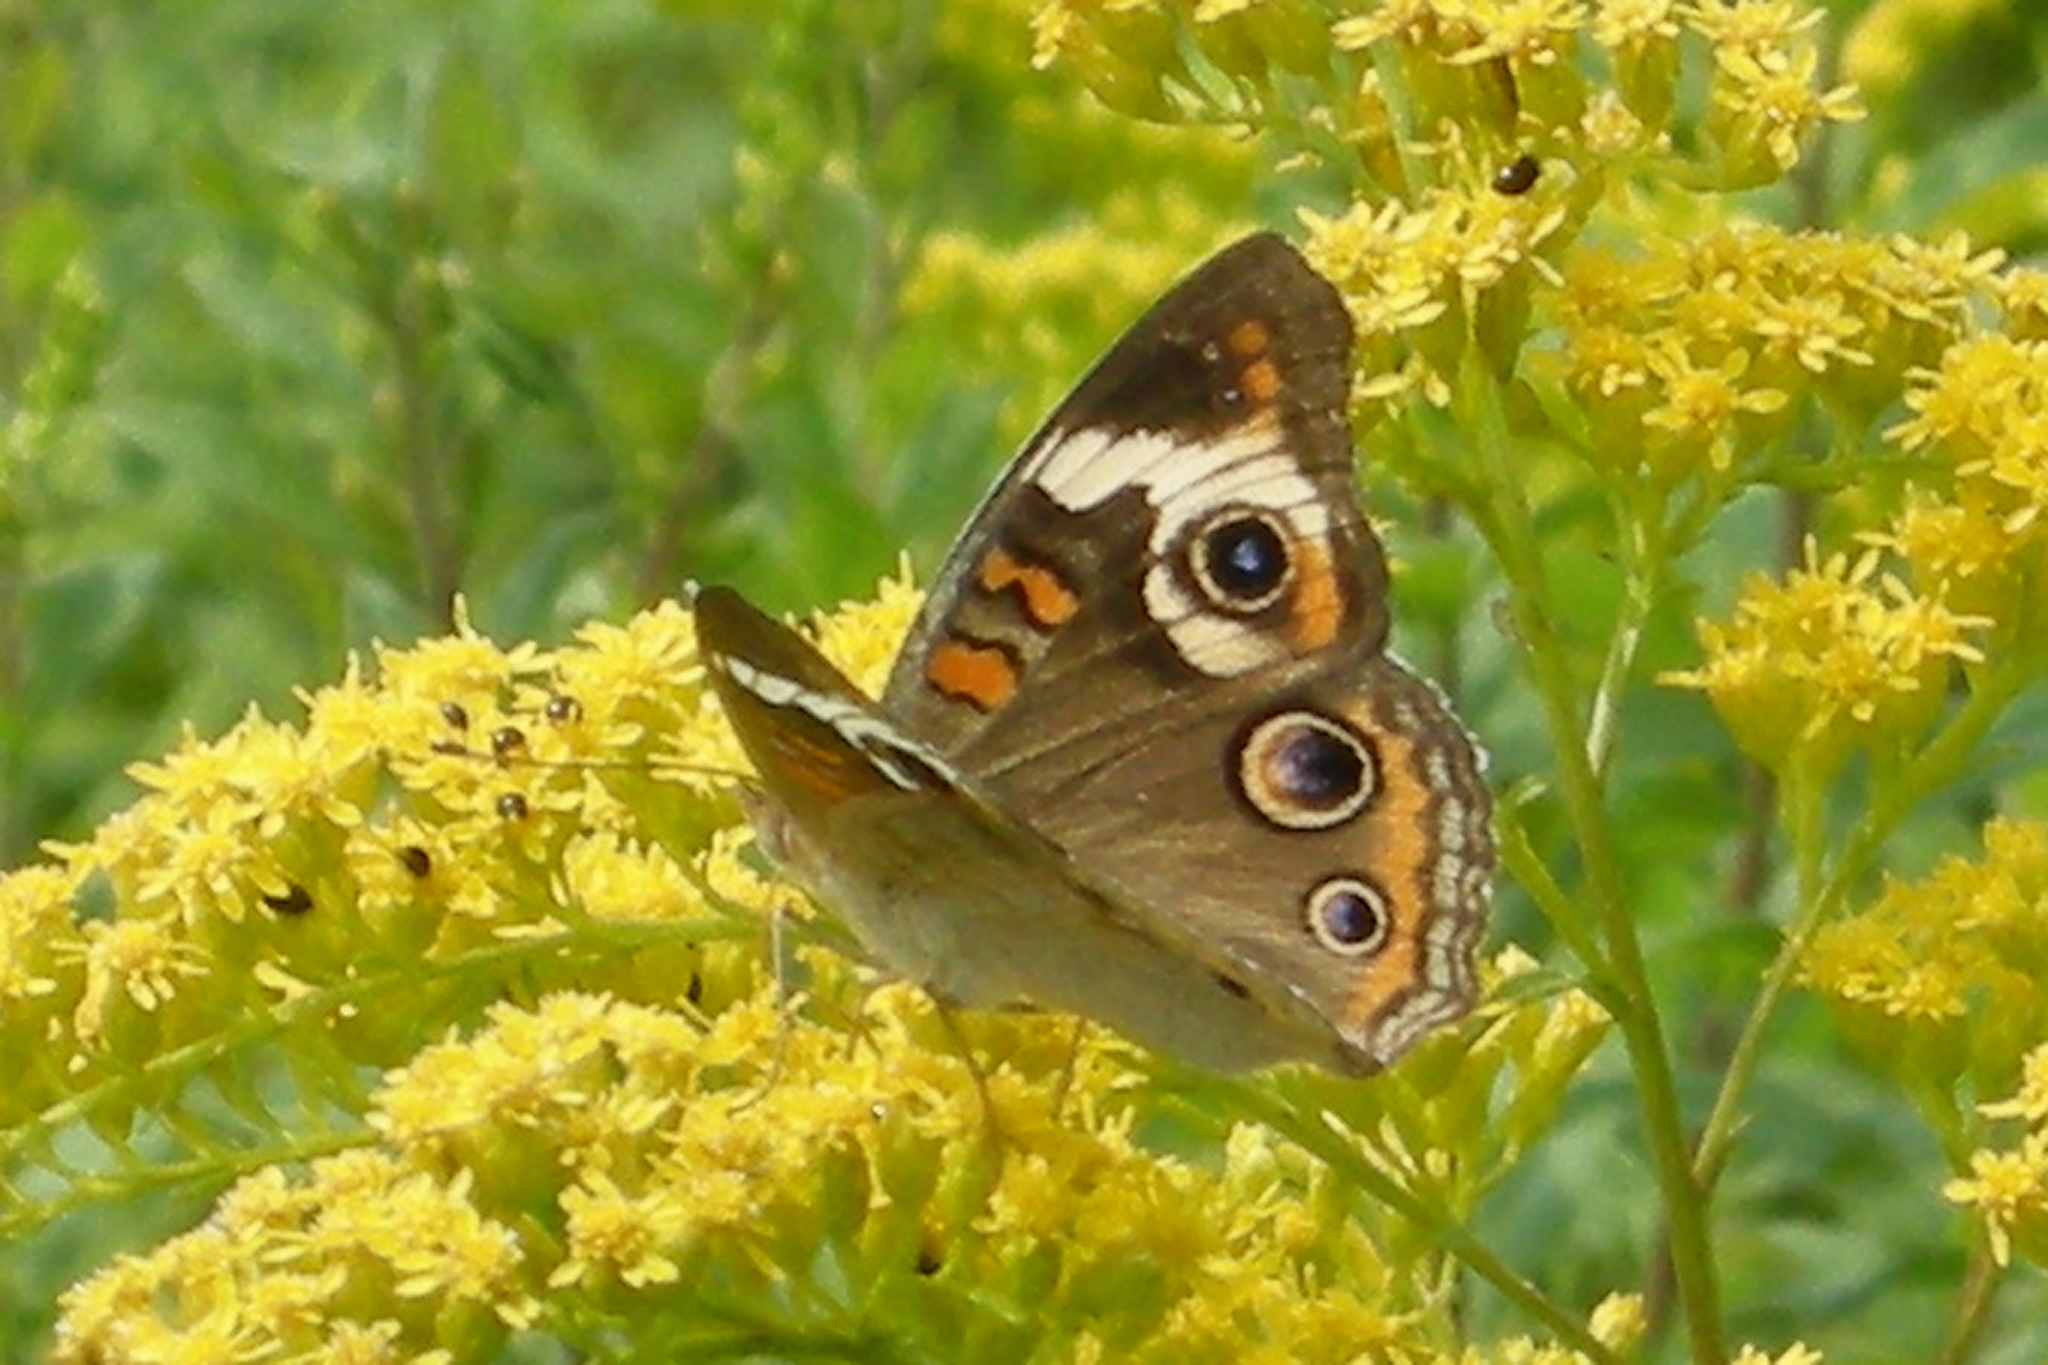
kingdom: Animalia
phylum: Arthropoda
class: Insecta
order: Lepidoptera
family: Nymphalidae
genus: Junonia
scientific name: Junonia coenia
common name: Common buckeye
